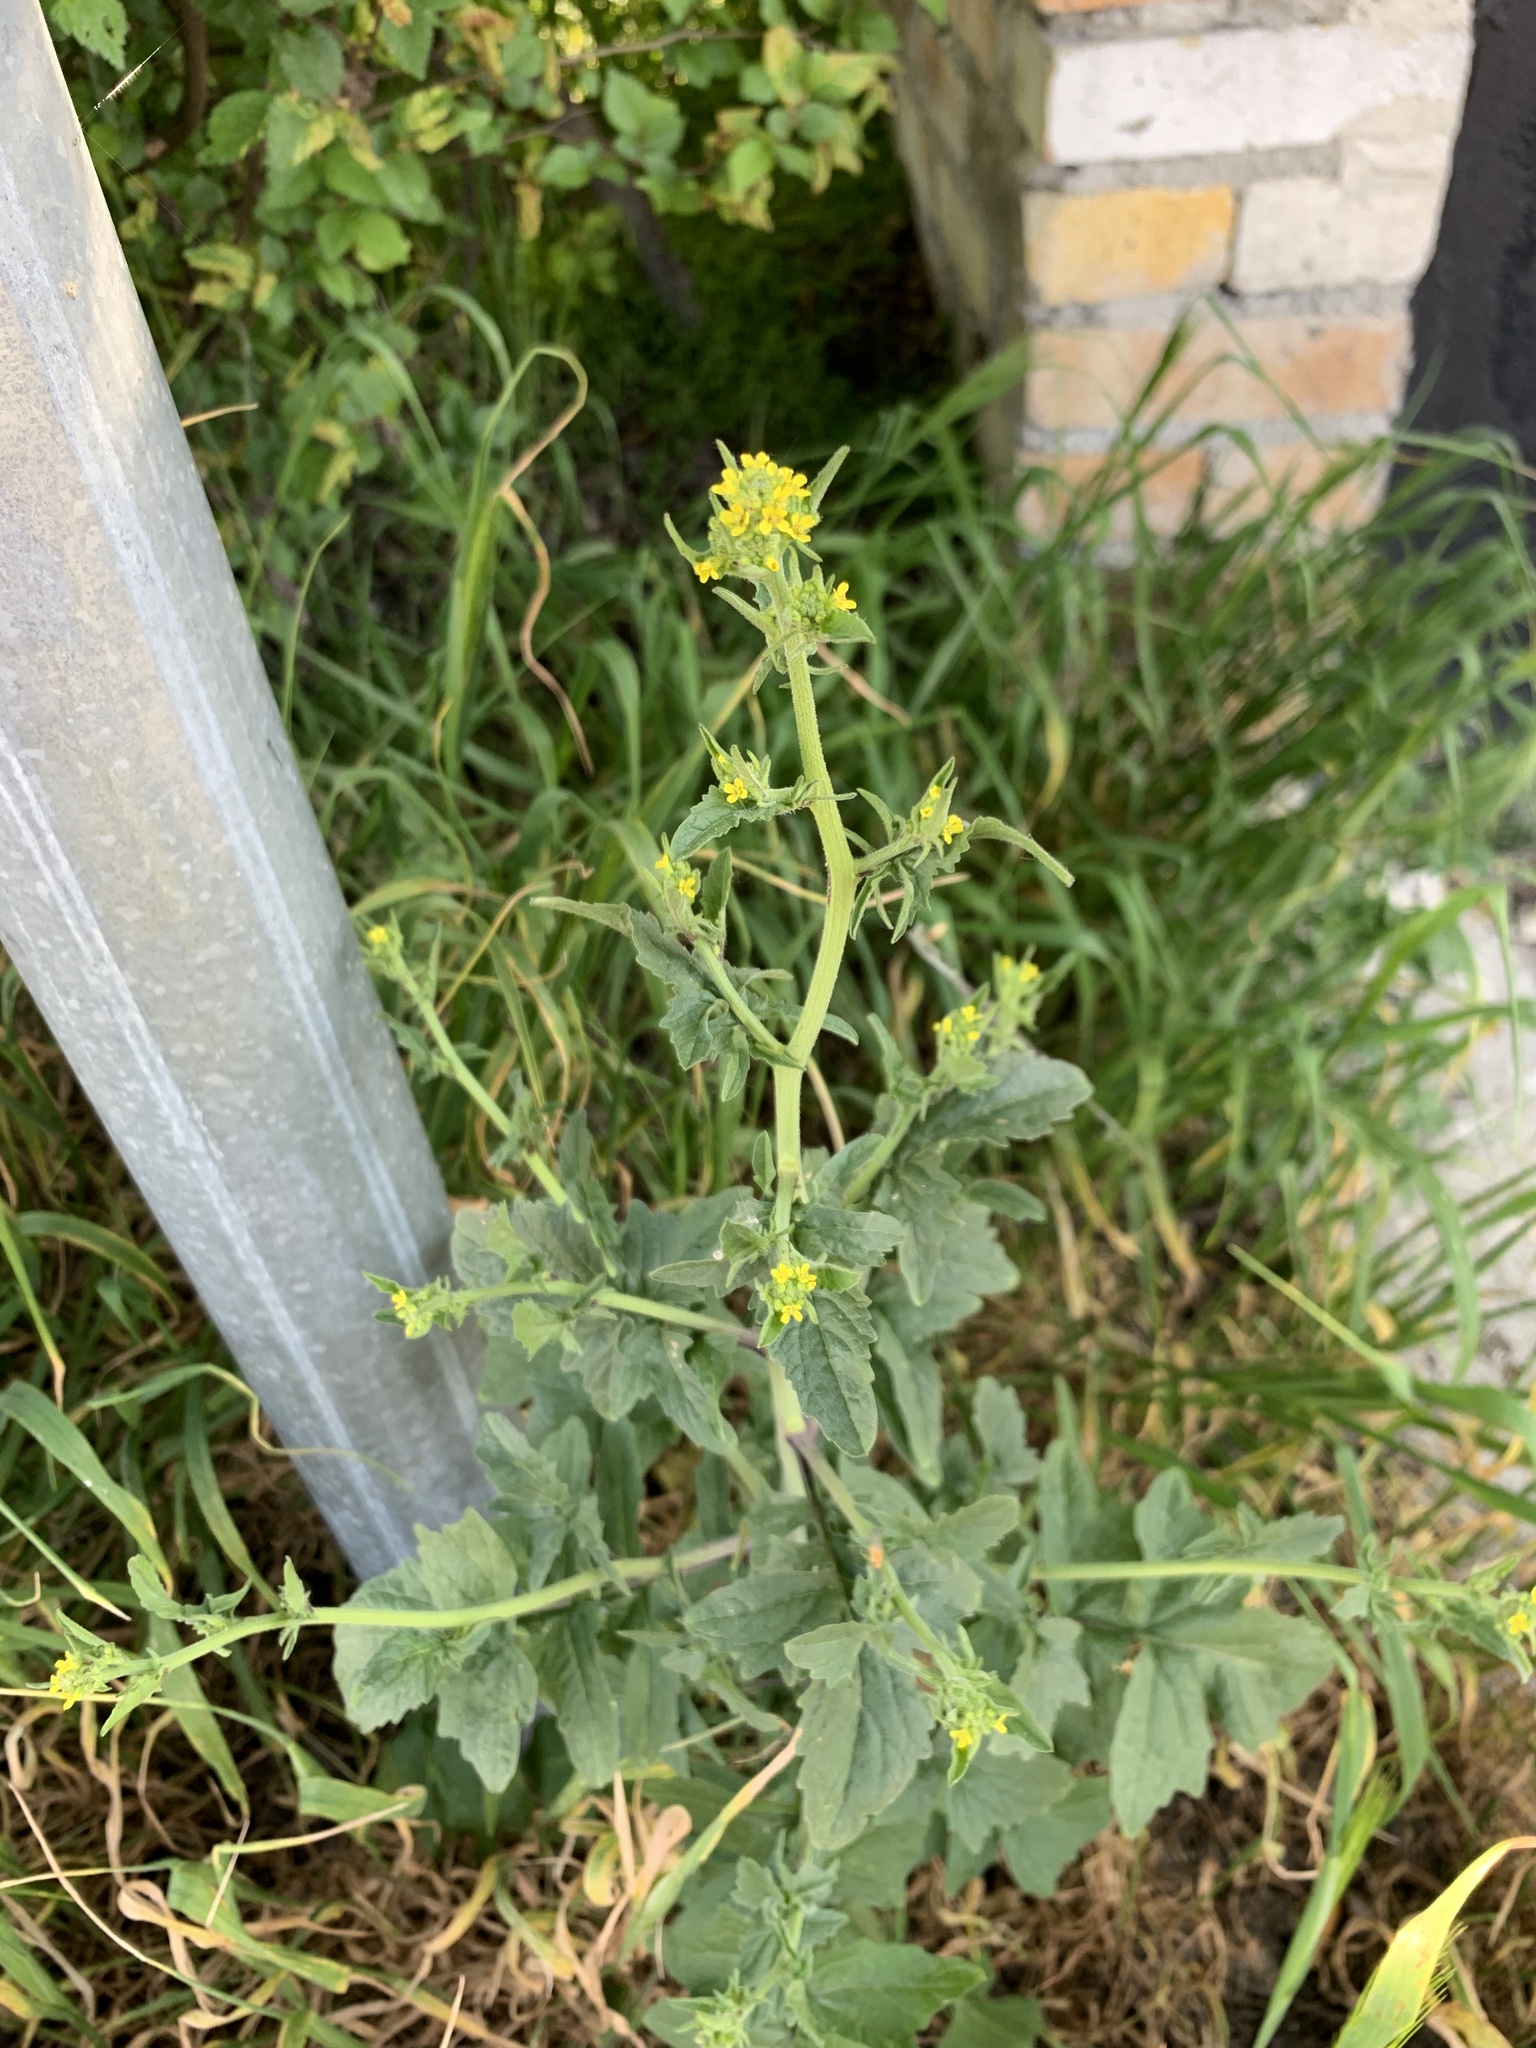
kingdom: Plantae
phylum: Tracheophyta
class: Magnoliopsida
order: Brassicales
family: Brassicaceae
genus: Sisymbrium
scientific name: Sisymbrium officinale
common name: Hedge mustard
